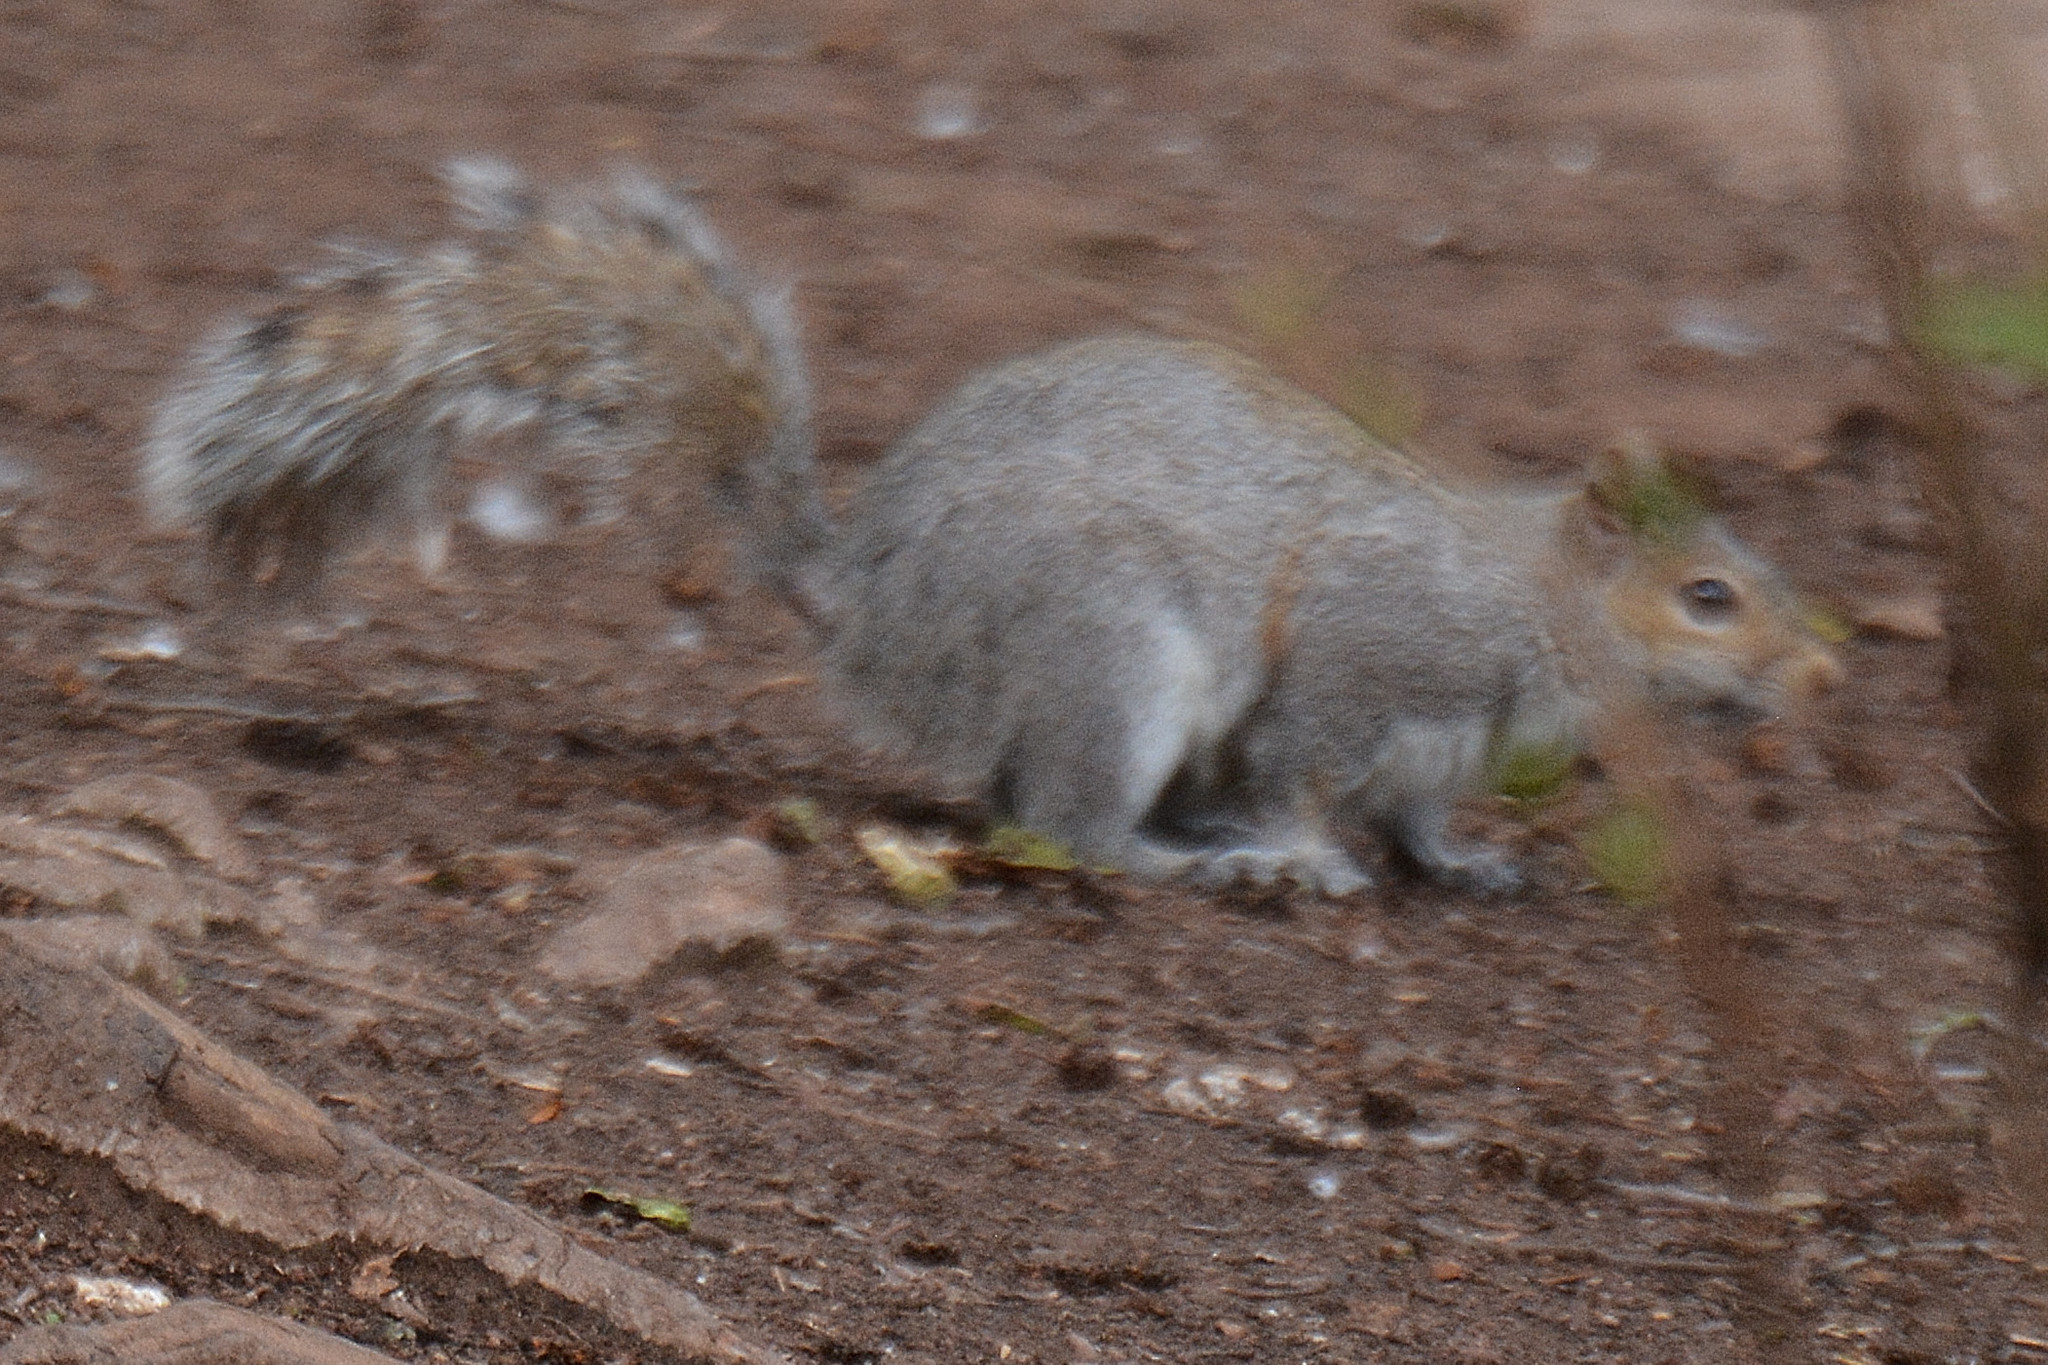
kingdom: Animalia
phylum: Chordata
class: Mammalia
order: Rodentia
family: Sciuridae
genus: Sciurus
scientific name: Sciurus carolinensis
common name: Eastern gray squirrel
